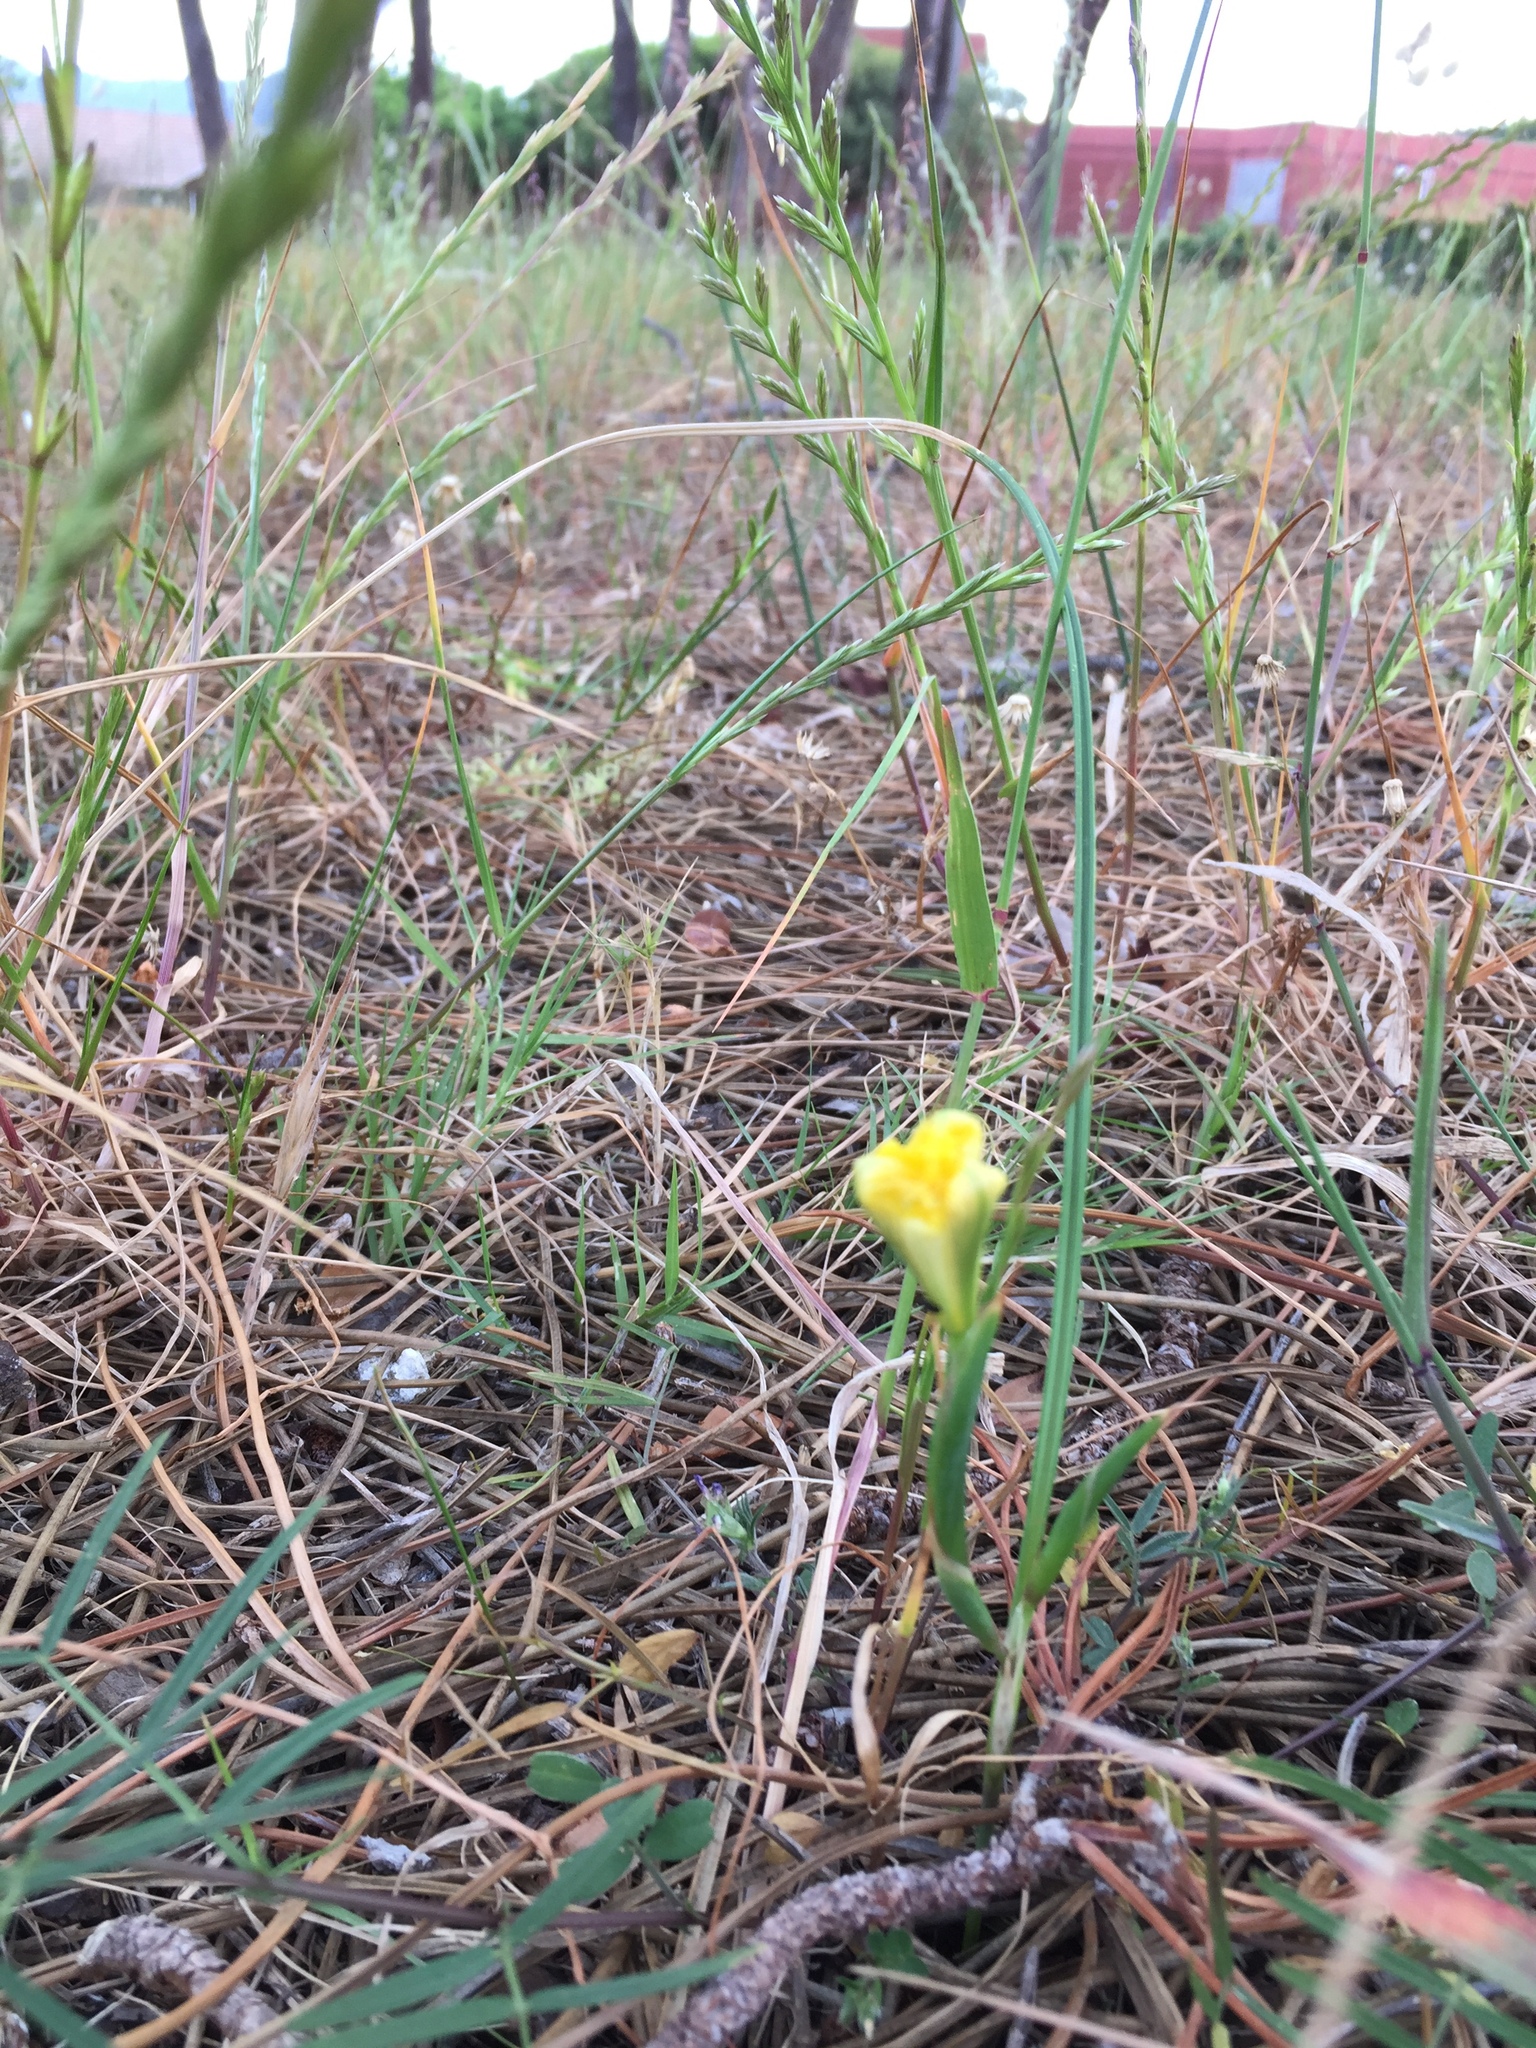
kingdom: Plantae
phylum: Tracheophyta
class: Liliopsida
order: Asparagales
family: Iridaceae
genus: Moraea
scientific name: Moraea fugax
